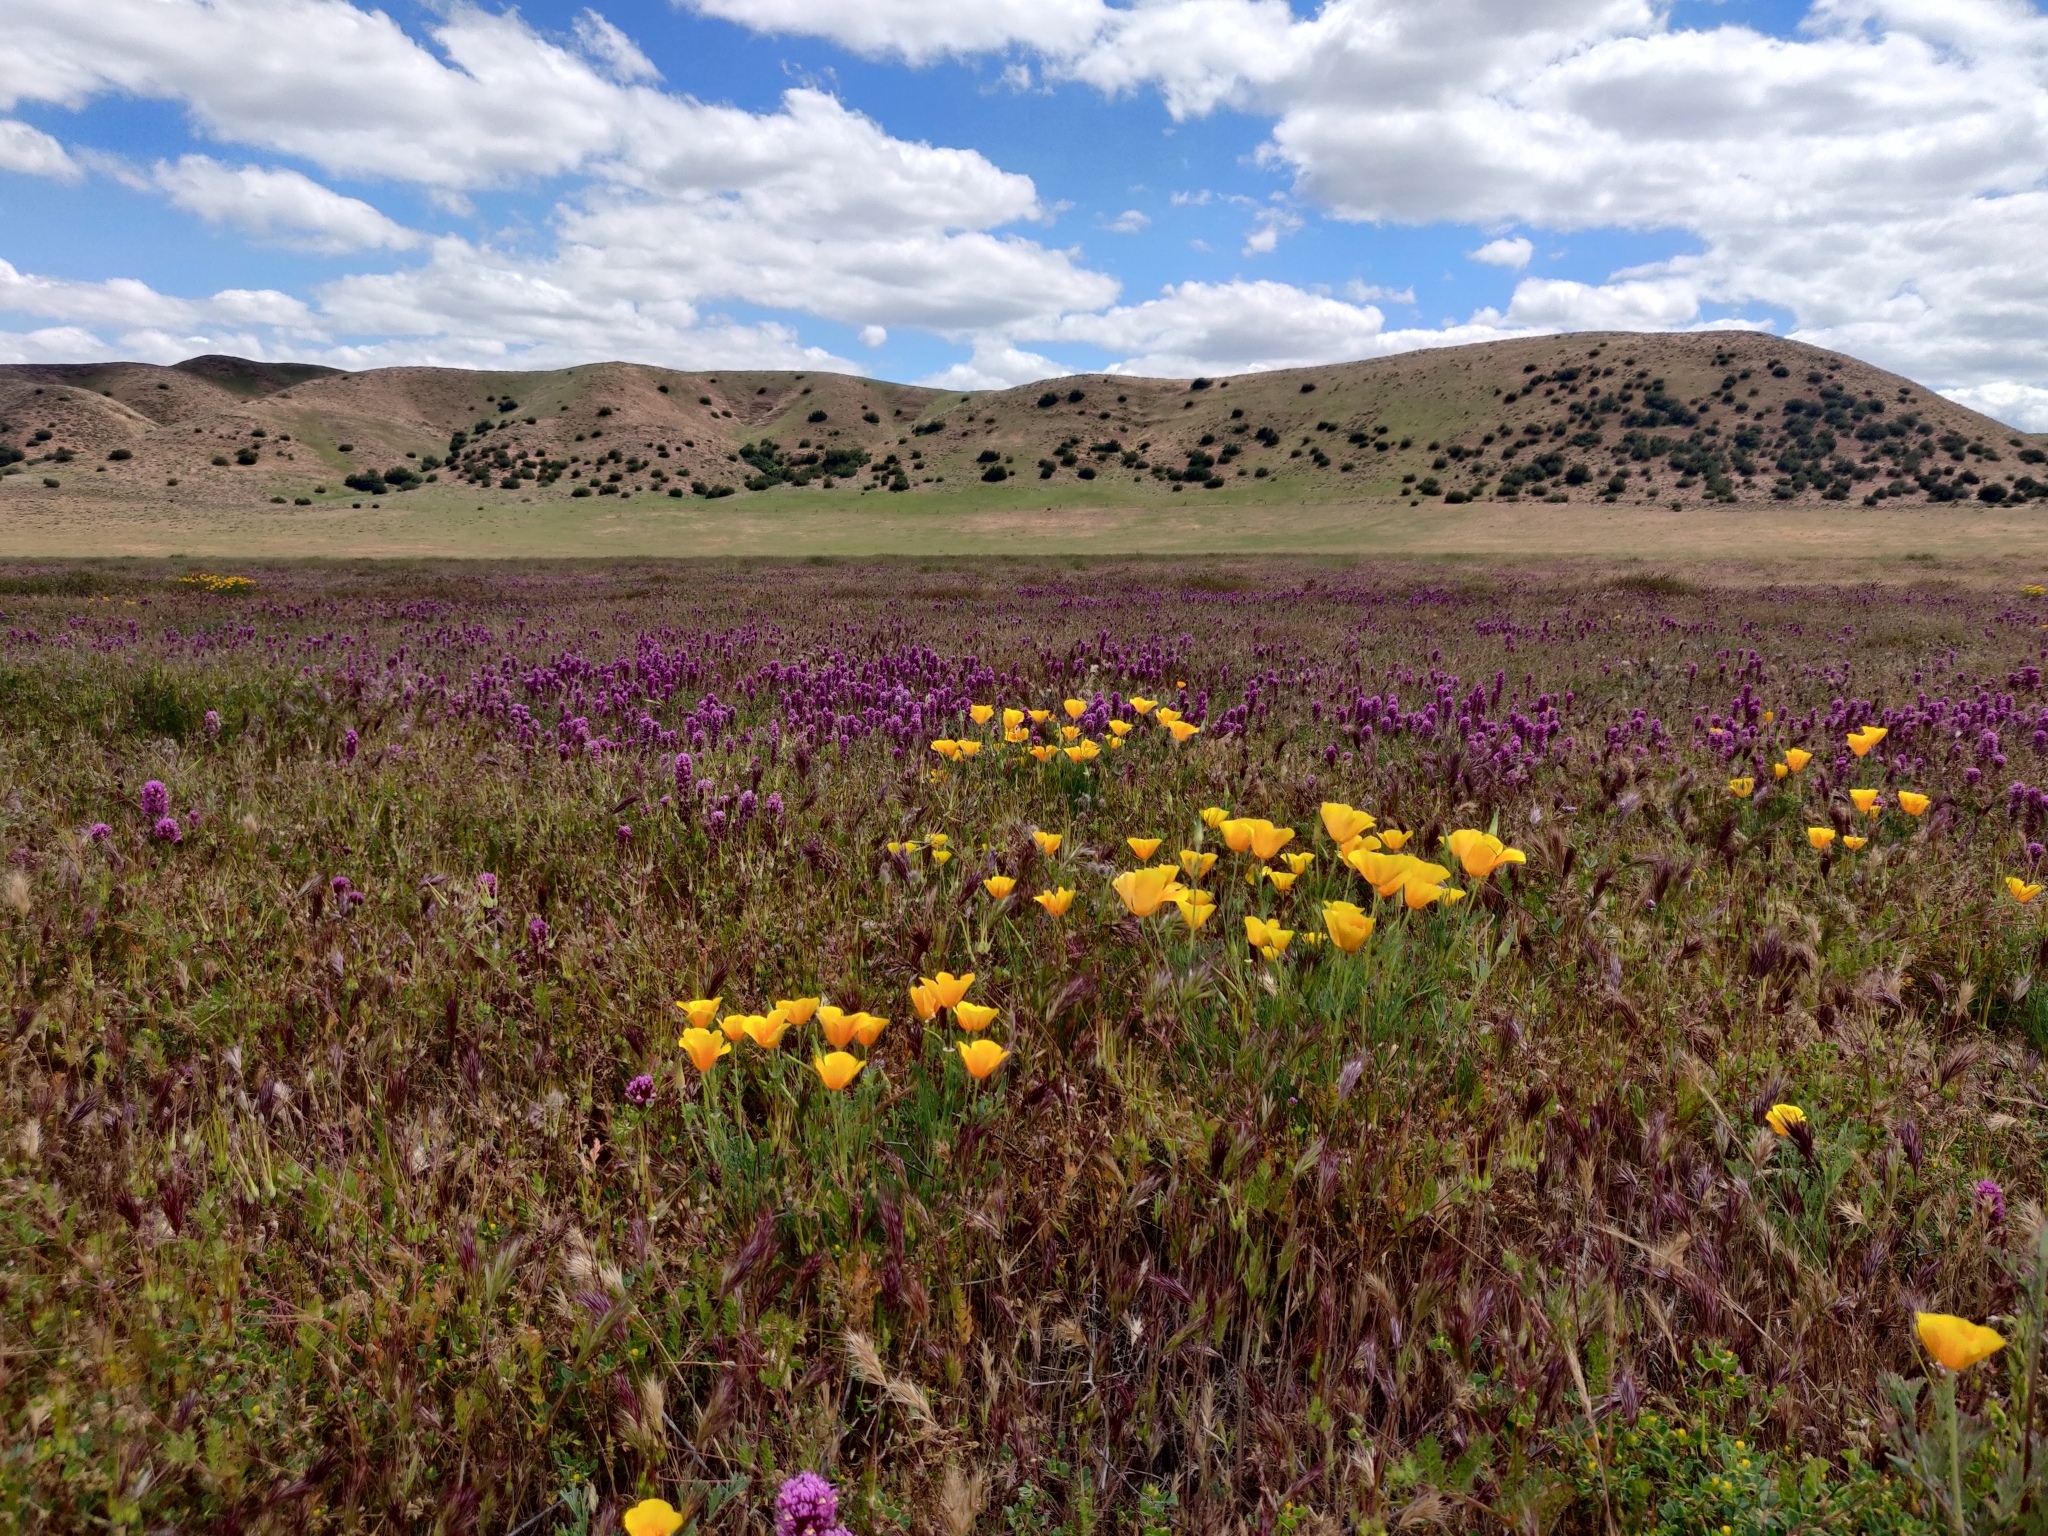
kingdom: Plantae
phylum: Tracheophyta
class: Magnoliopsida
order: Ranunculales
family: Papaveraceae
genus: Eschscholzia
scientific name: Eschscholzia californica
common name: California poppy
